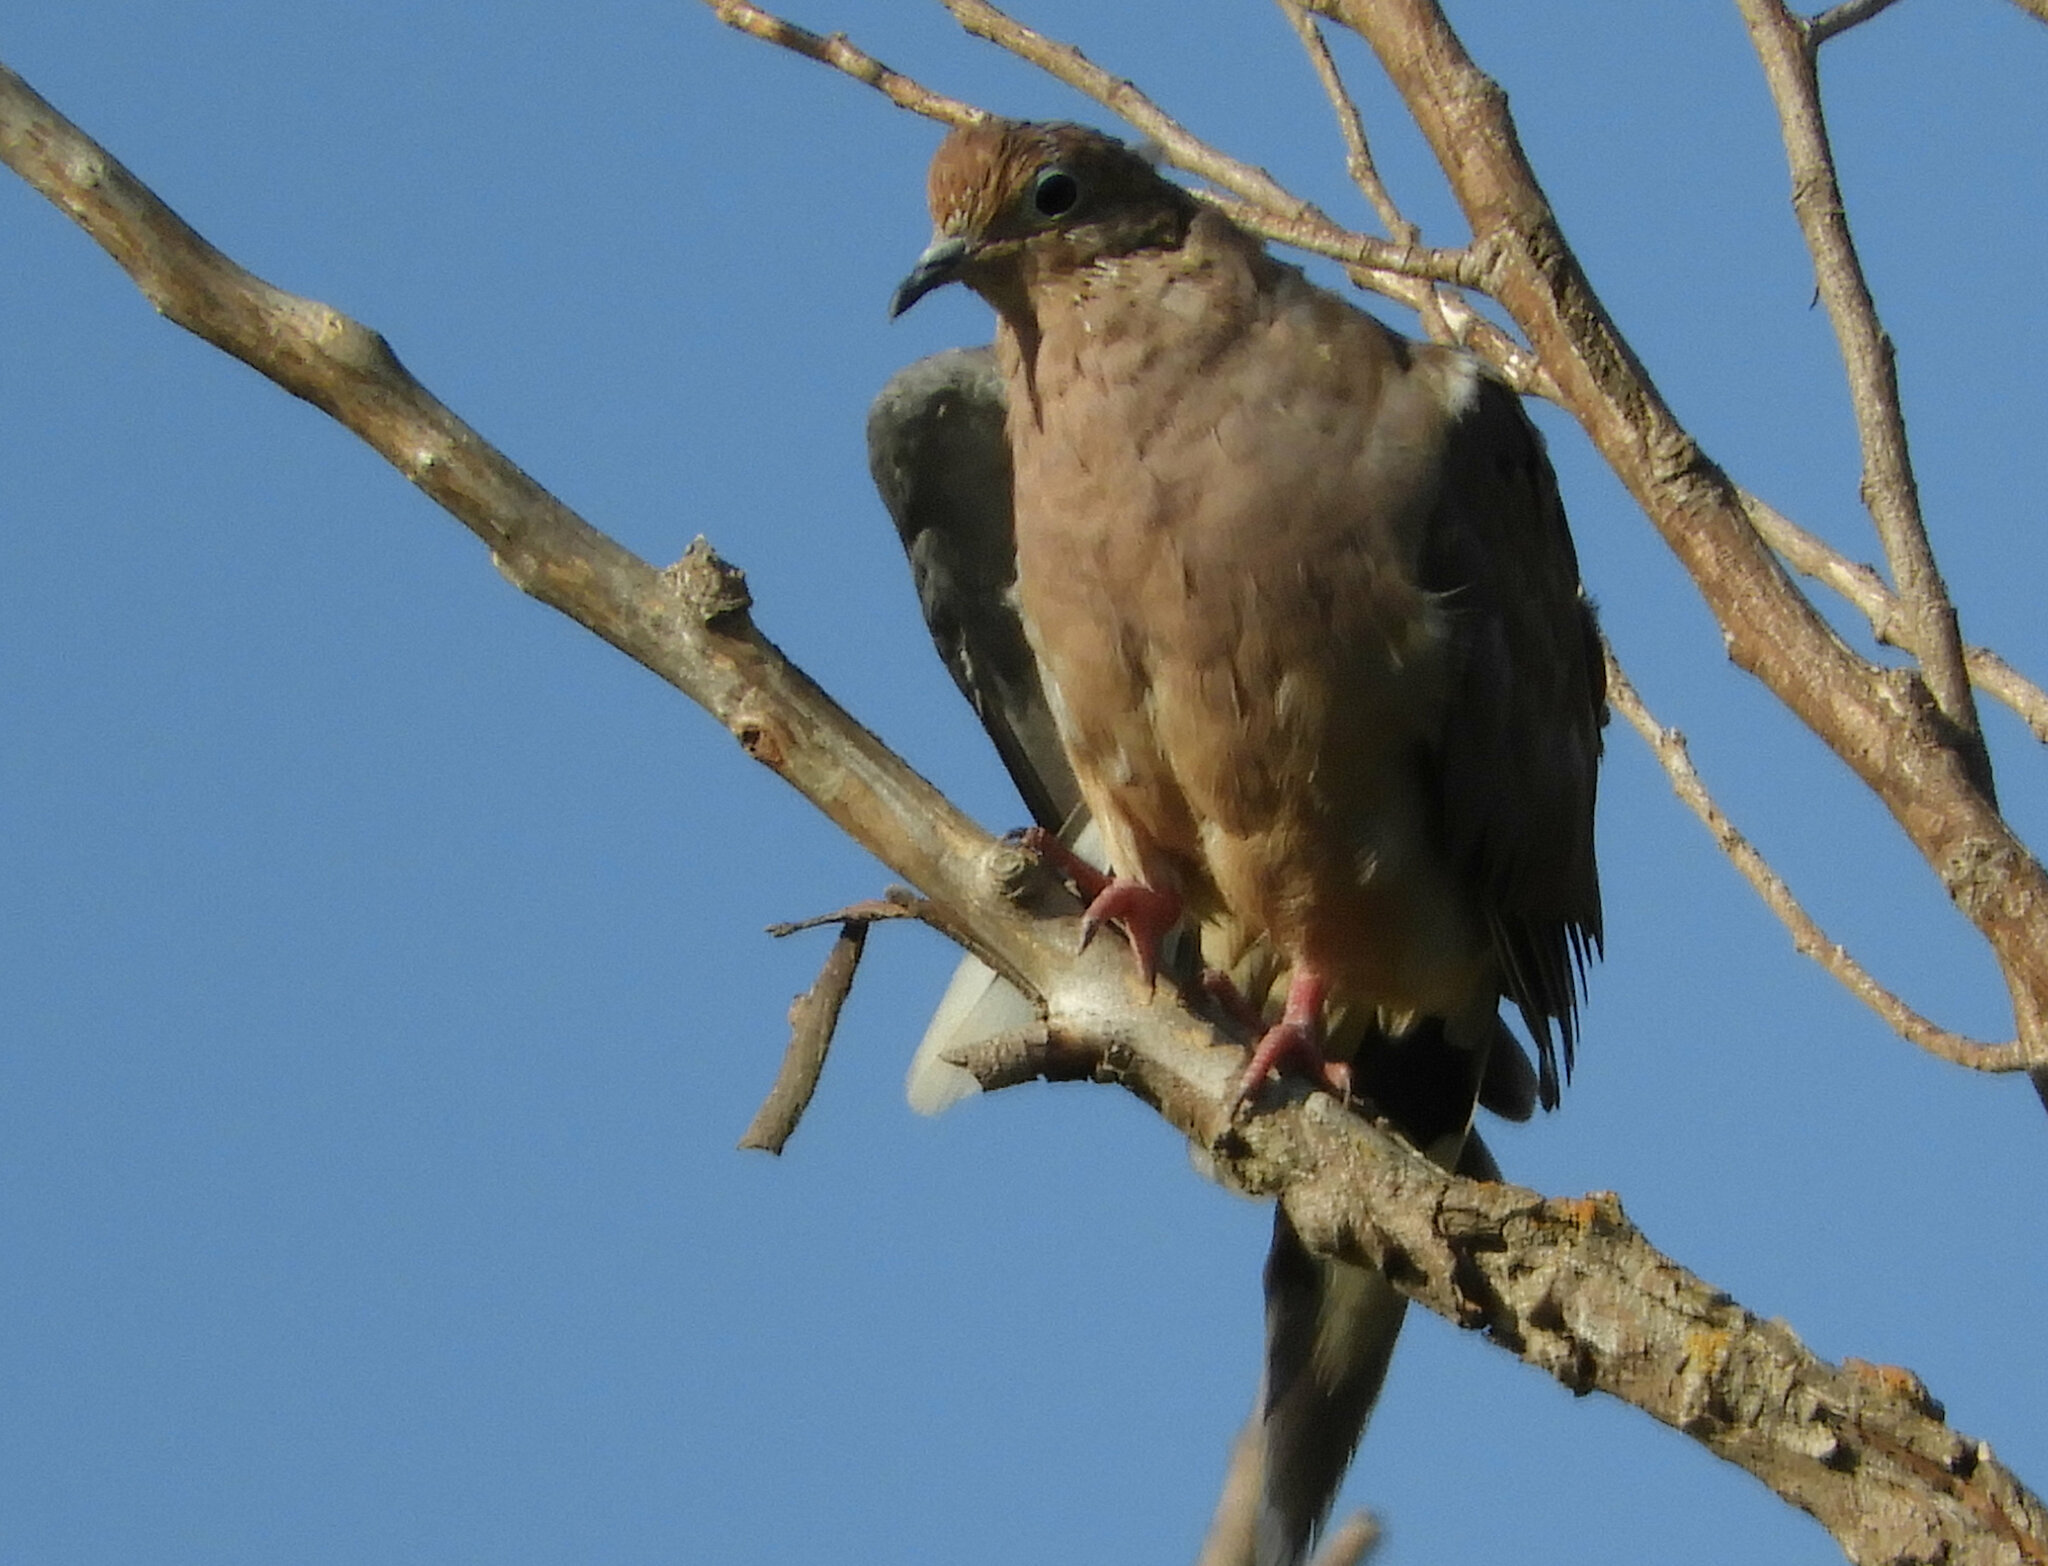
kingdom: Animalia
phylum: Chordata
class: Aves
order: Columbiformes
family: Columbidae
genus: Zenaida
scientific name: Zenaida macroura
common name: Mourning dove
